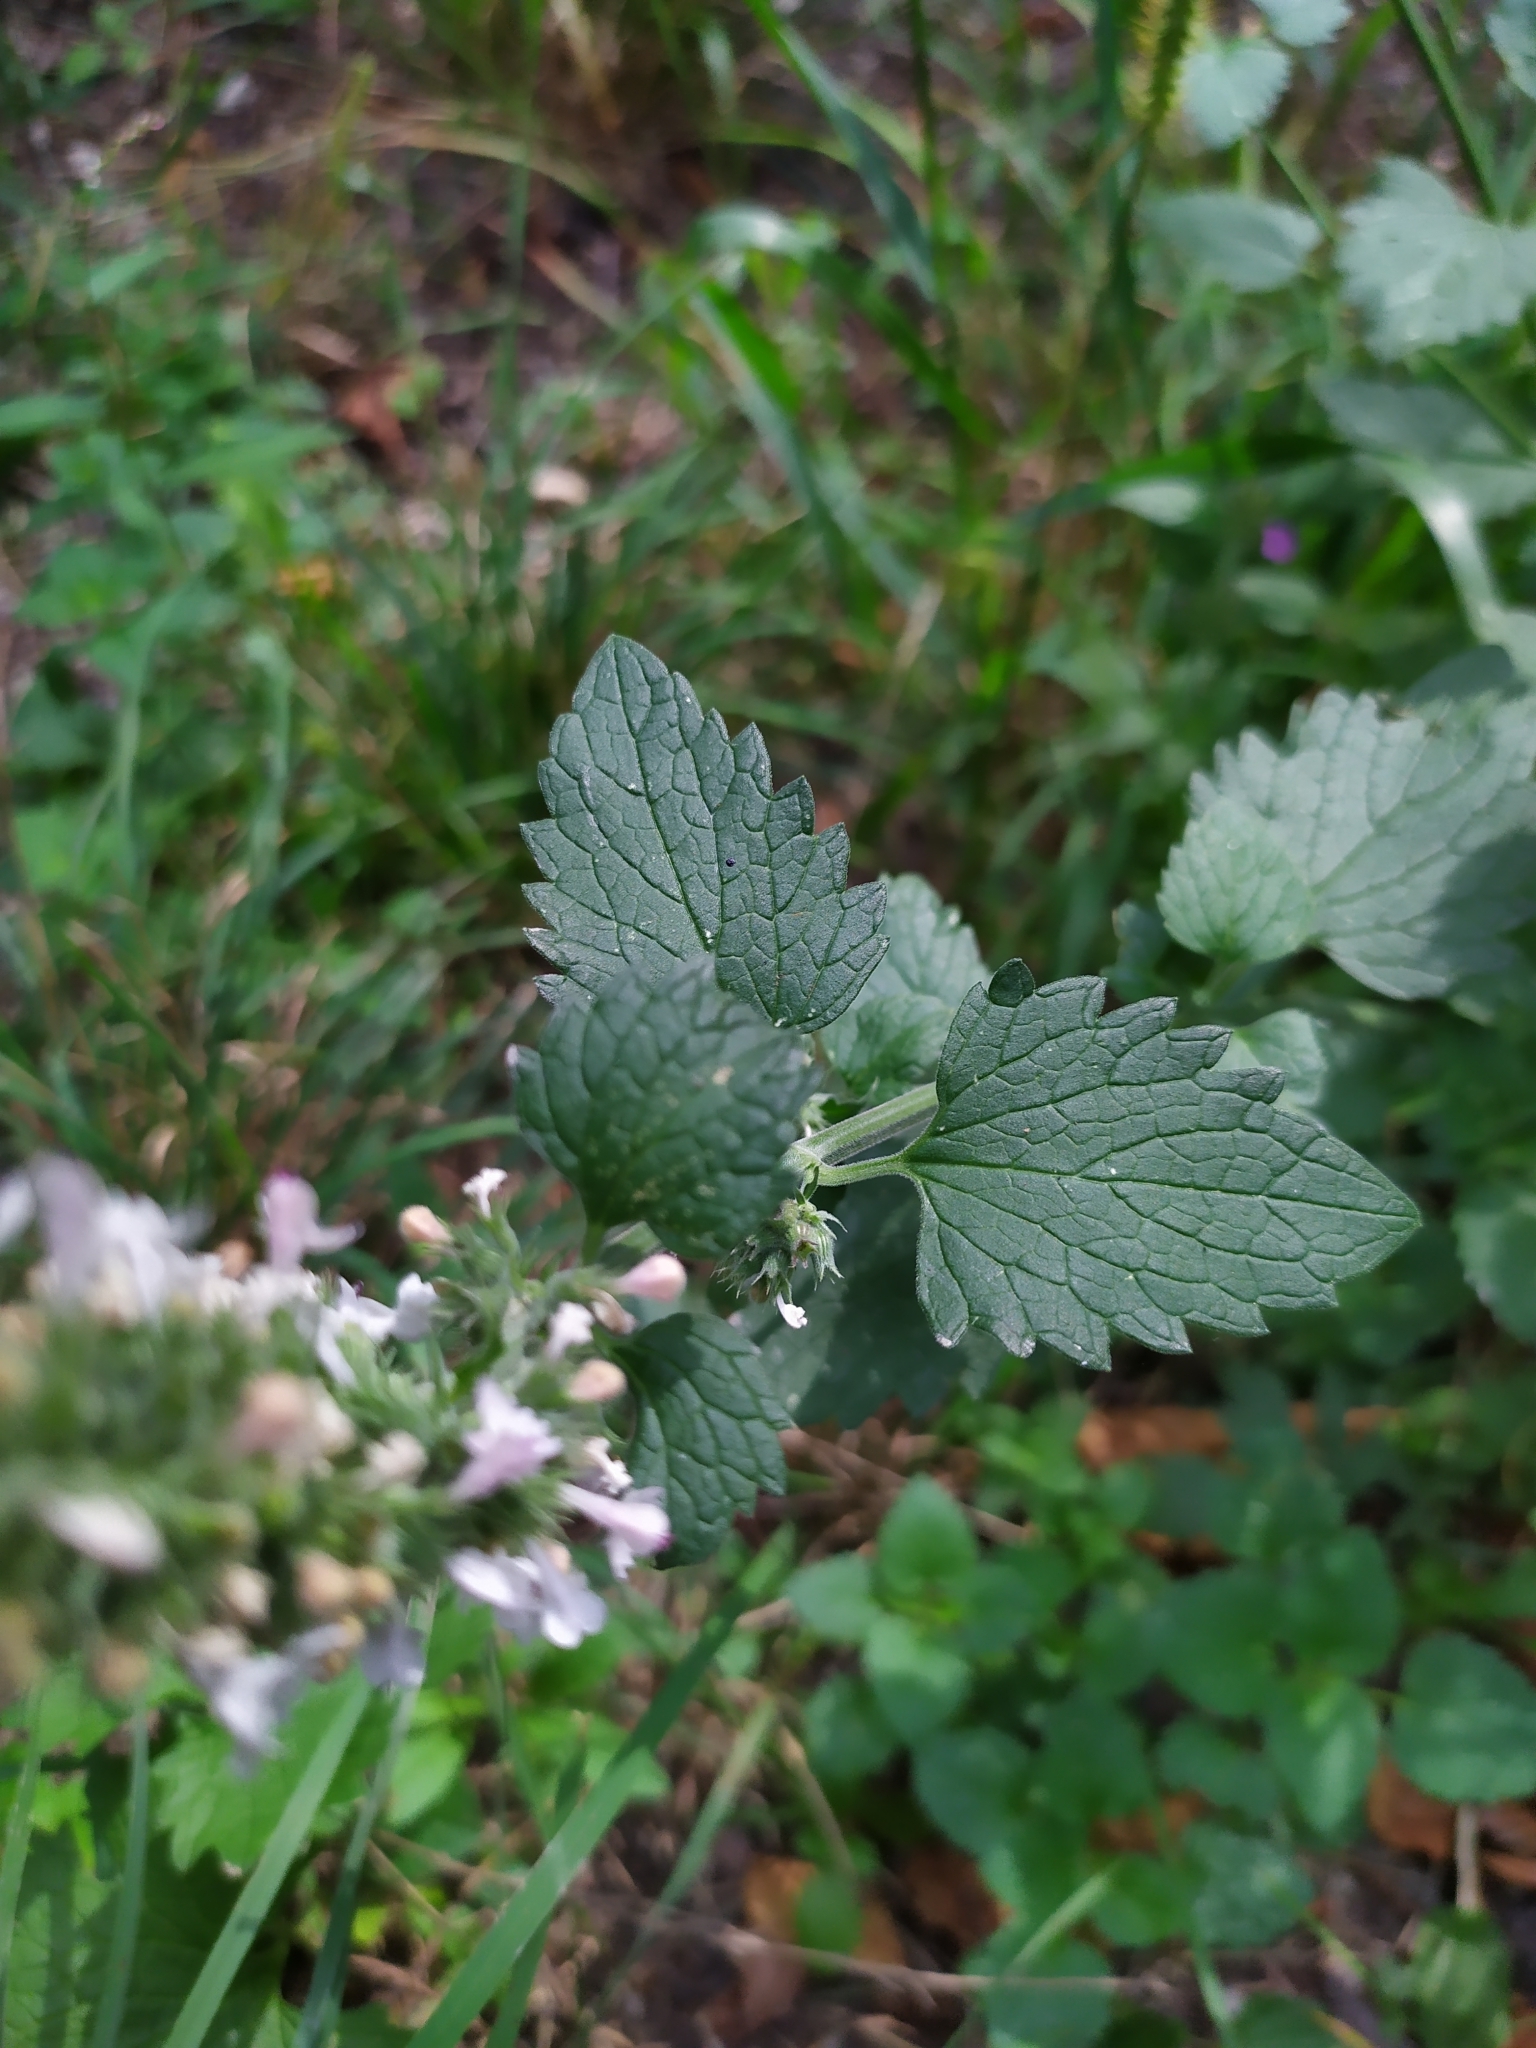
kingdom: Plantae
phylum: Tracheophyta
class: Magnoliopsida
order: Lamiales
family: Lamiaceae
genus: Nepeta
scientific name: Nepeta cataria
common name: Catnip
